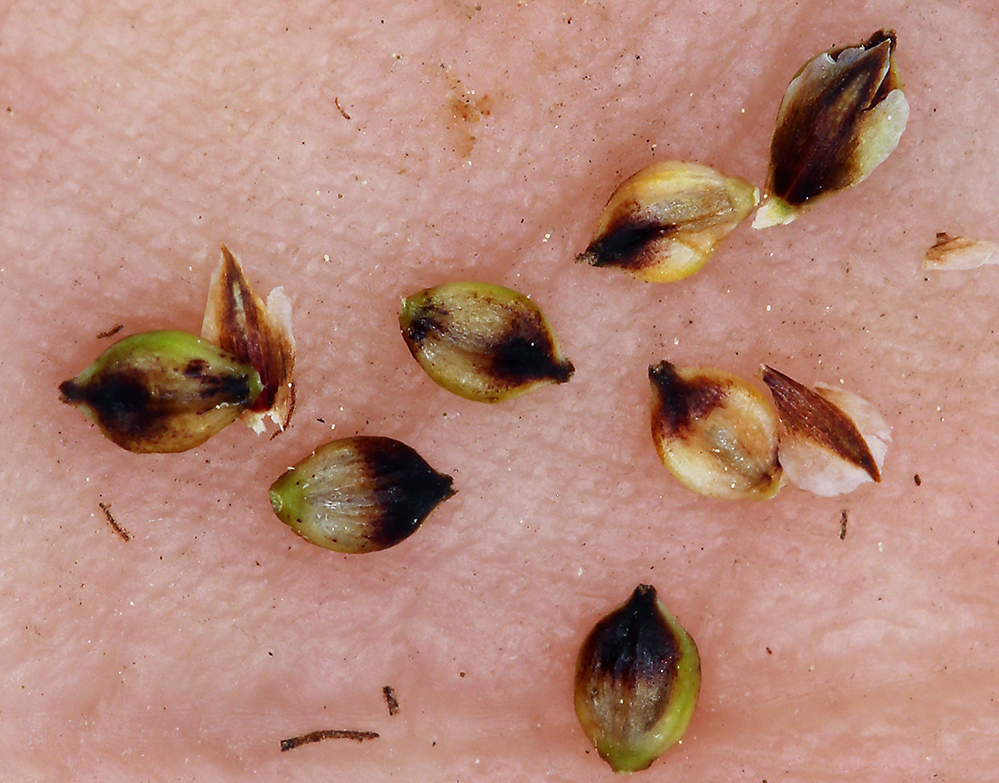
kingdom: Plantae
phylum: Tracheophyta
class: Liliopsida
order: Poales
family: Cyperaceae
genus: Carex
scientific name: Carex idahoa
